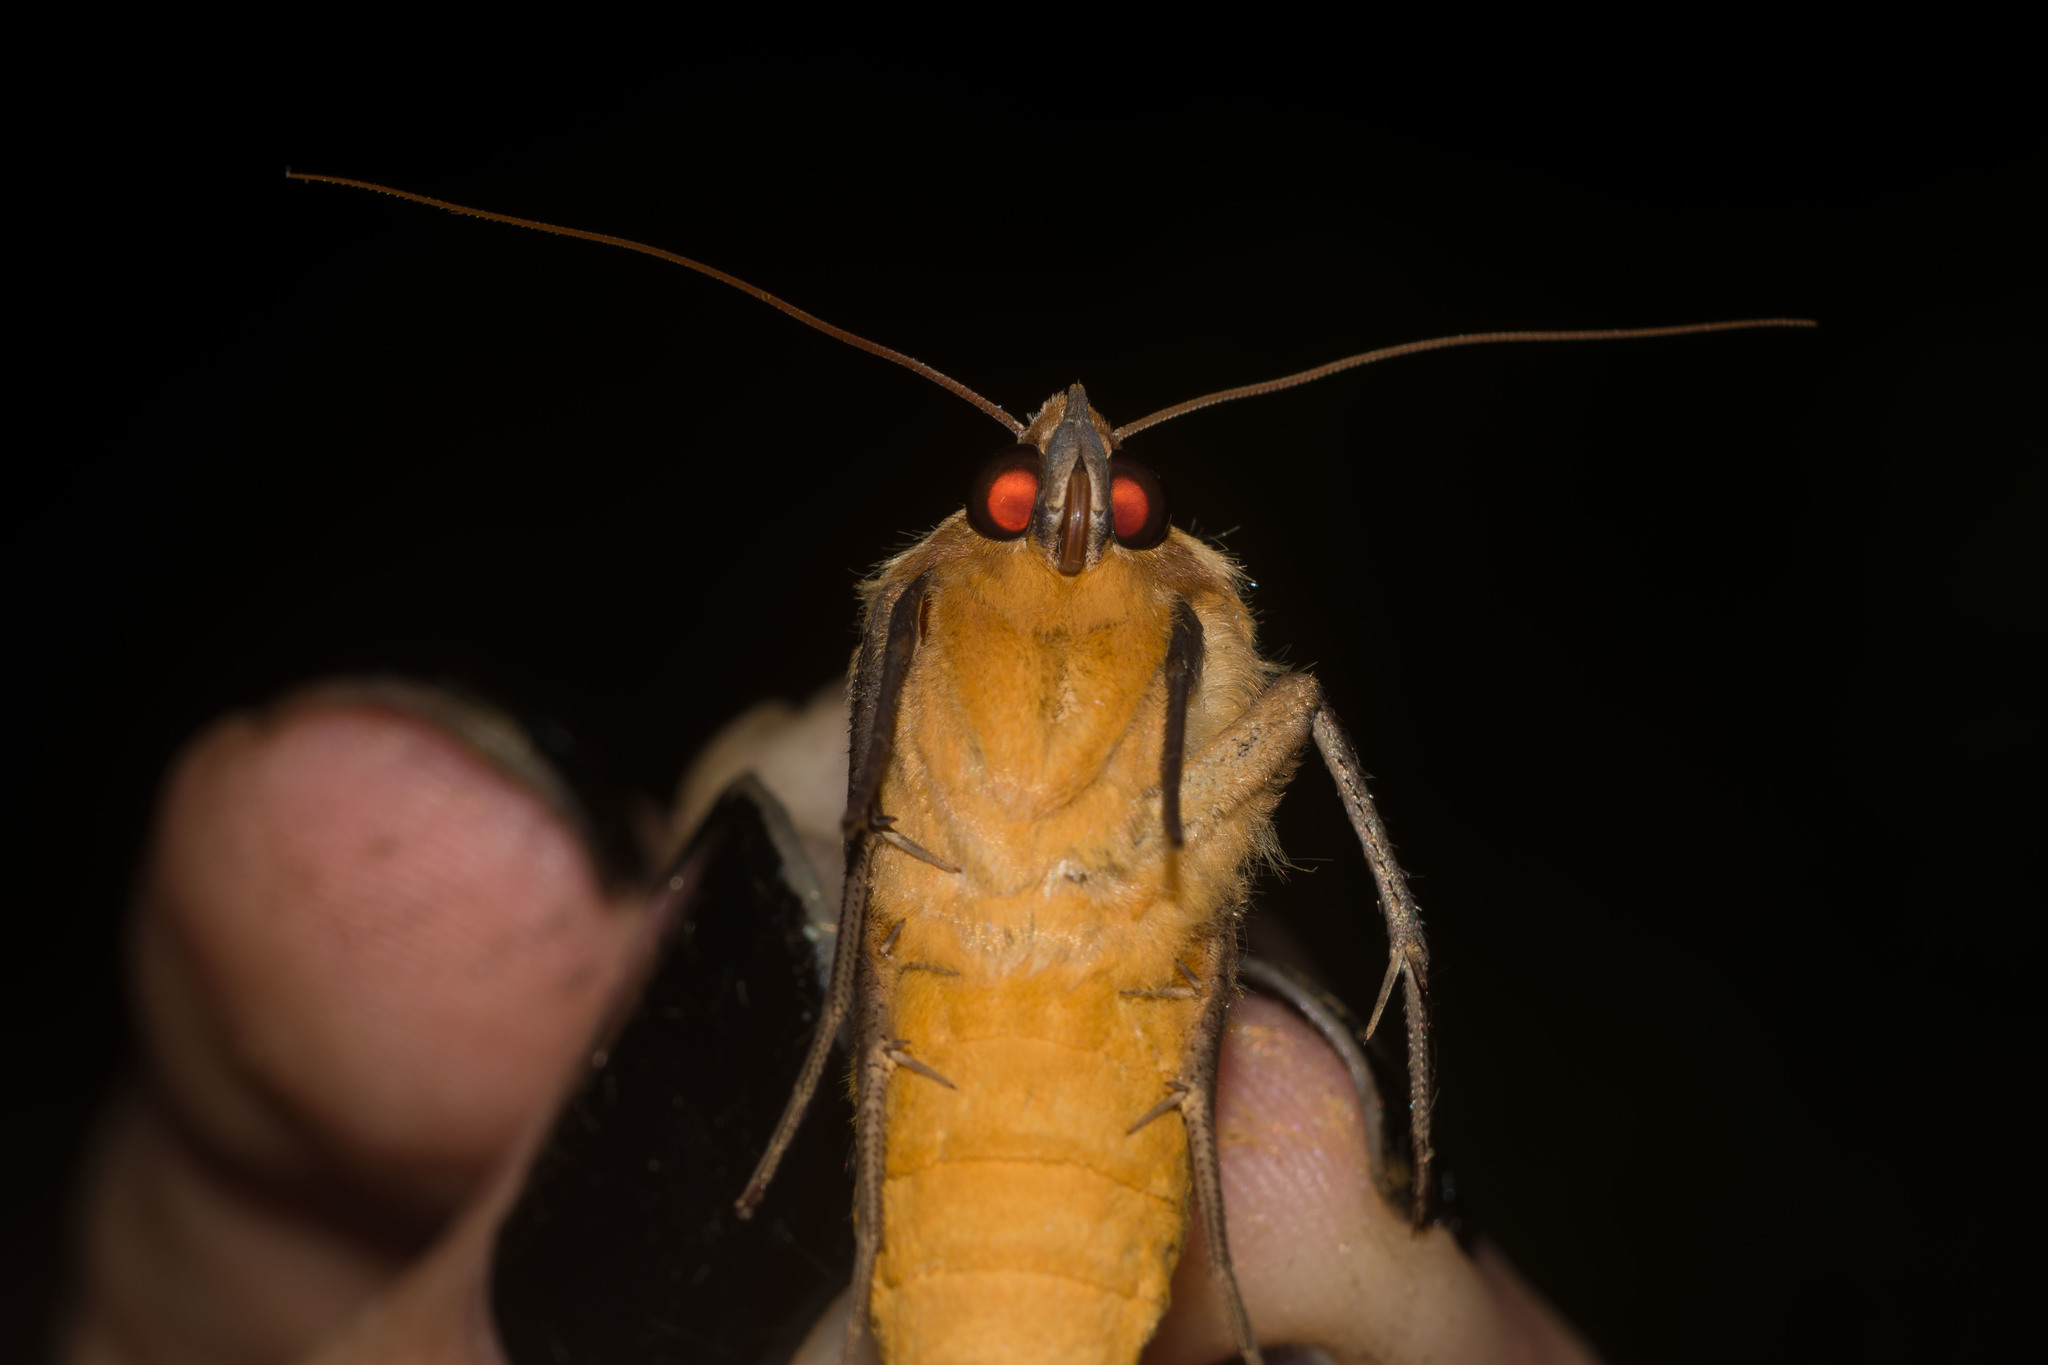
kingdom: Animalia
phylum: Arthropoda
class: Insecta
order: Lepidoptera
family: Erebidae
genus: Ophiusa
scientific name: Ophiusa disjungens
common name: Moth
